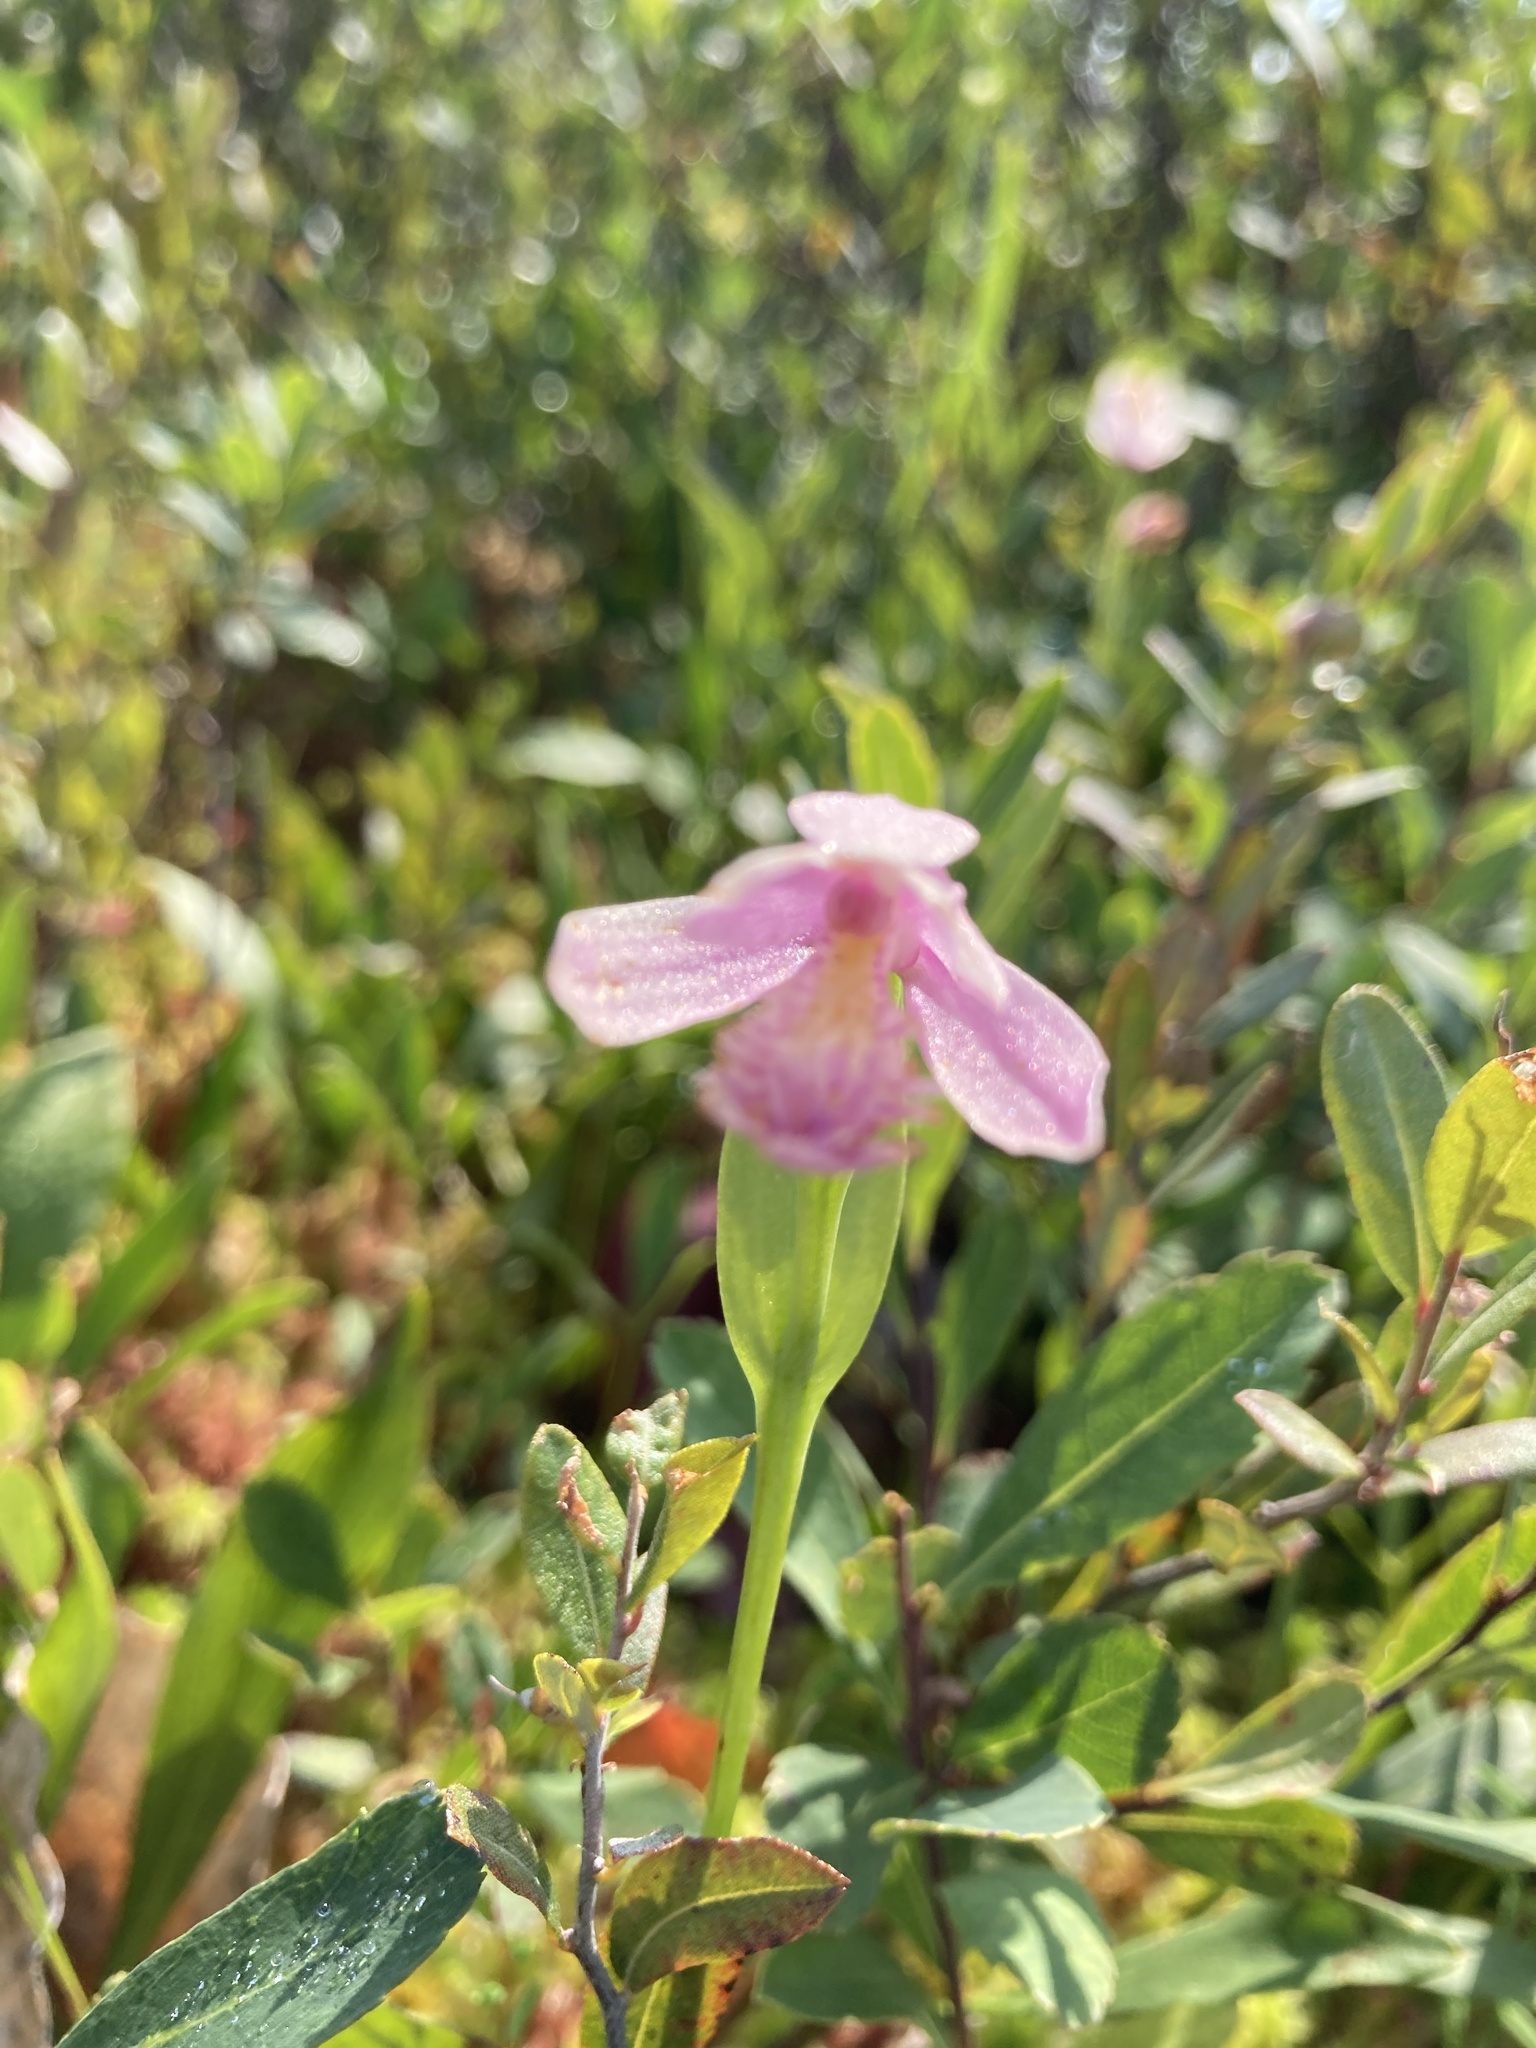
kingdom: Plantae
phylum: Tracheophyta
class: Liliopsida
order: Asparagales
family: Orchidaceae
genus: Pogonia
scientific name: Pogonia ophioglossoides
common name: Rose pogonia
